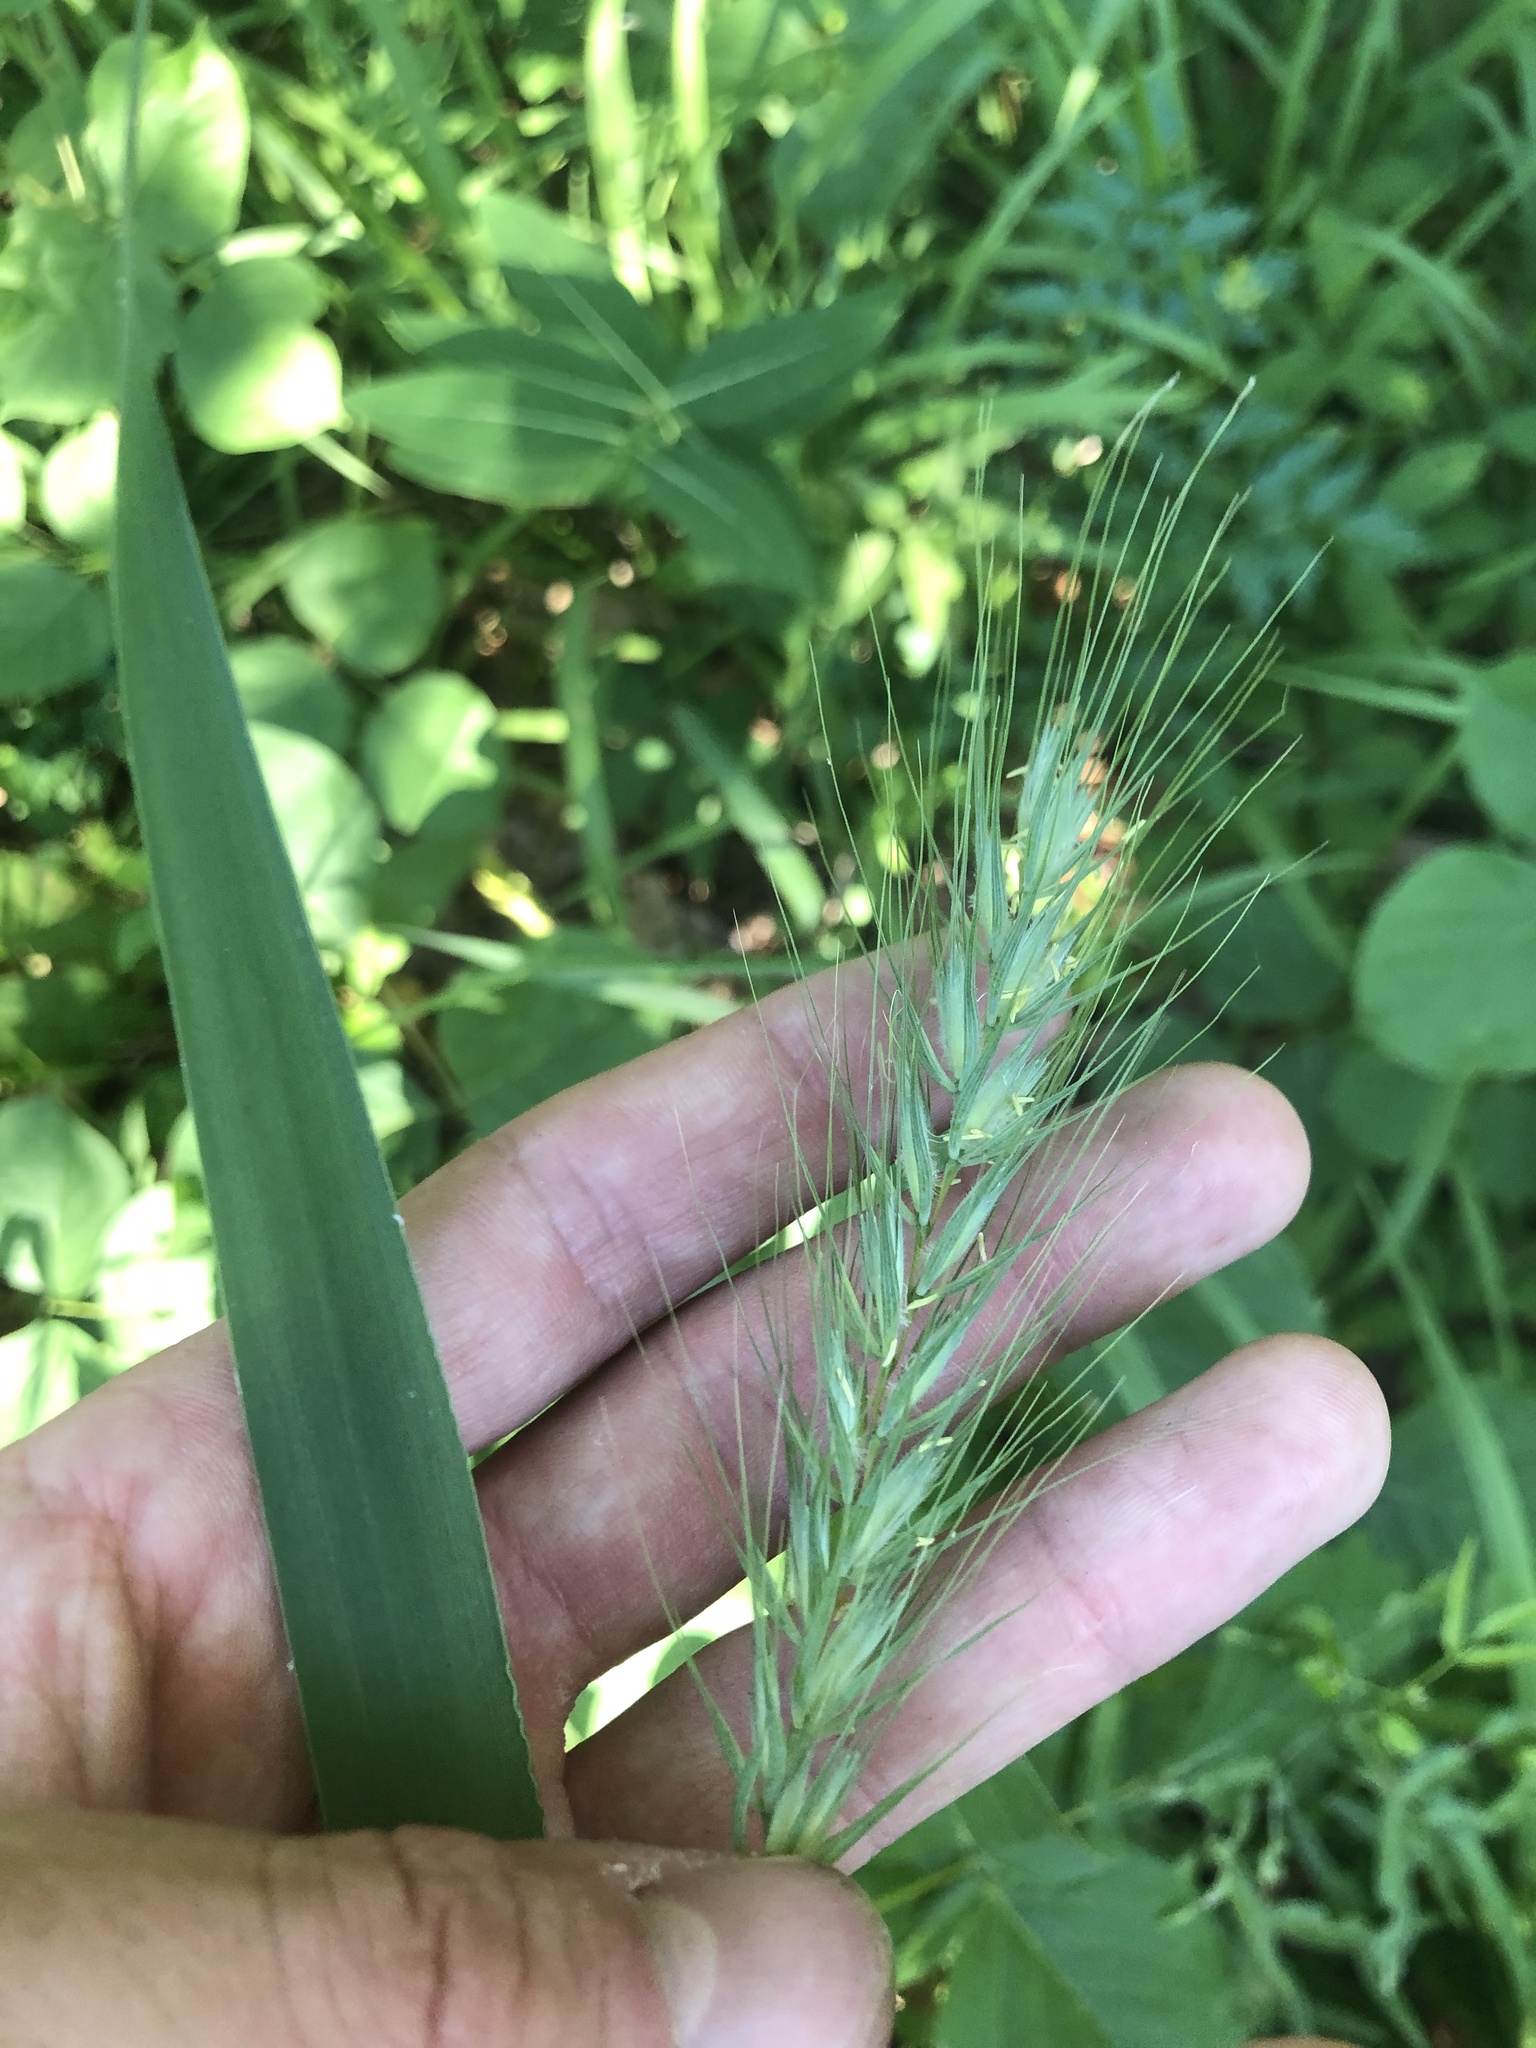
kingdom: Plantae
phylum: Tracheophyta
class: Liliopsida
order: Poales
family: Poaceae
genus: Elymus
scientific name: Elymus virginicus
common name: Common eastern wildrye
